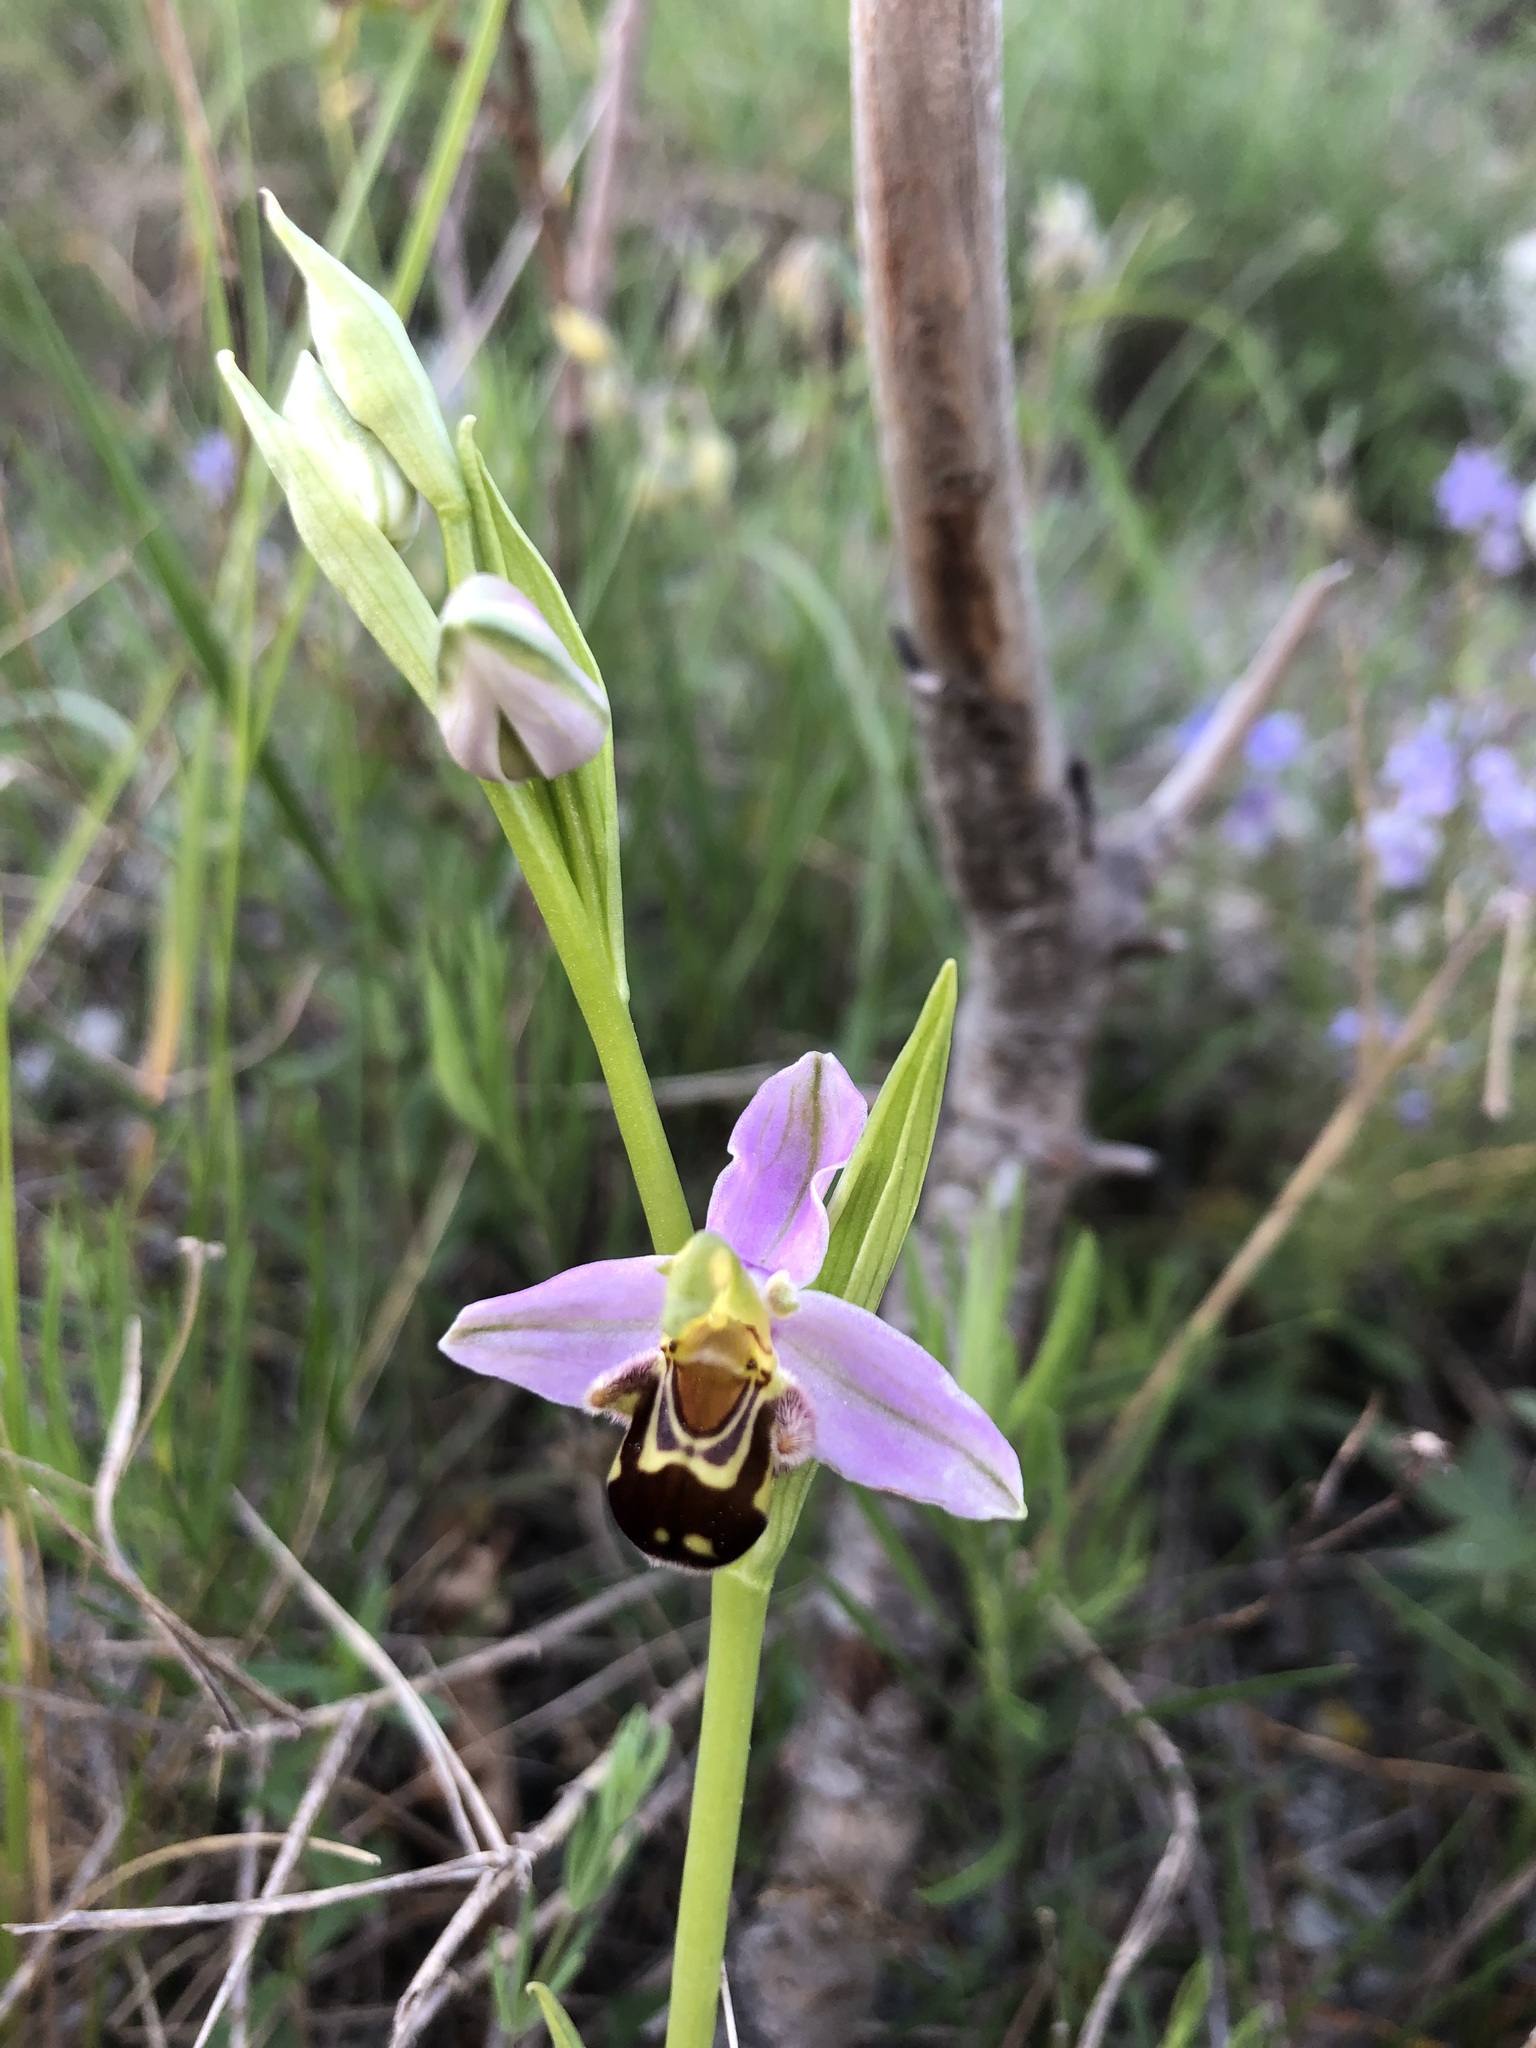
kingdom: Plantae
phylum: Tracheophyta
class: Liliopsida
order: Asparagales
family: Orchidaceae
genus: Ophrys
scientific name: Ophrys apifera
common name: Bee orchid
